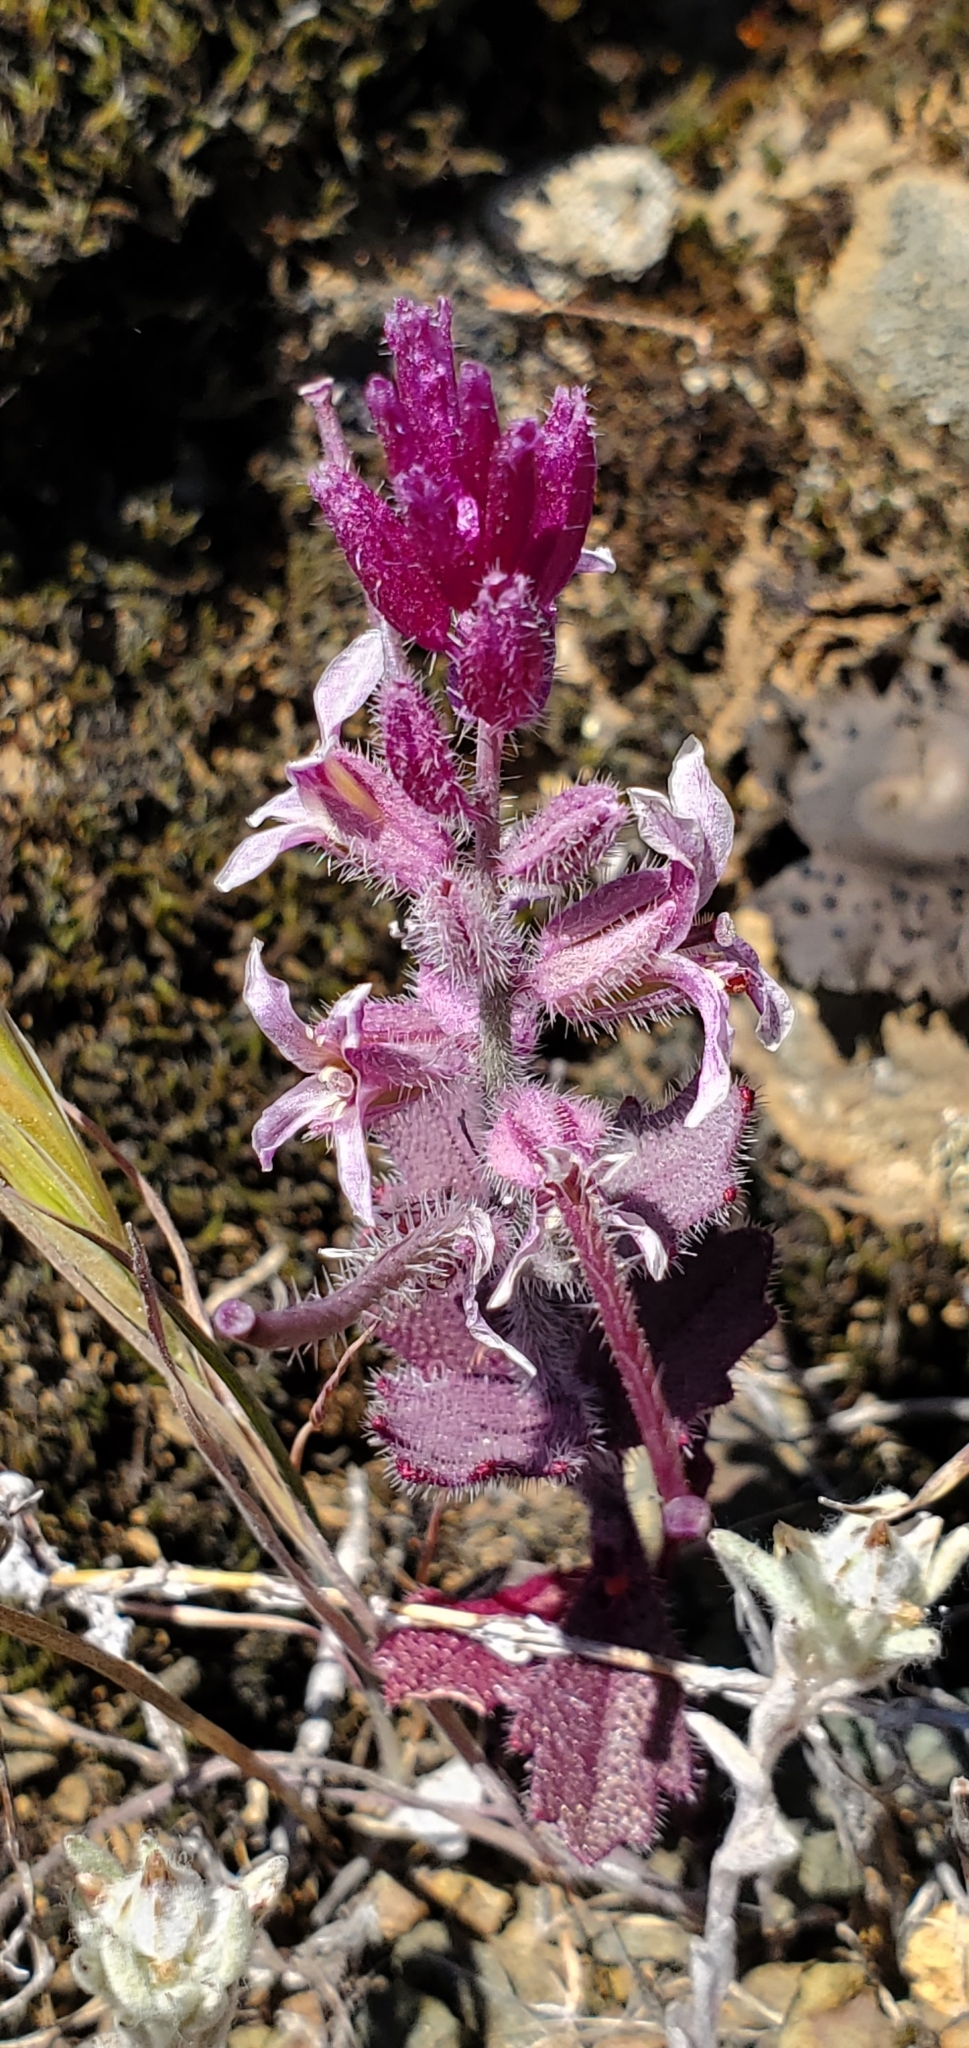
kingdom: Plantae
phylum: Tracheophyta
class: Magnoliopsida
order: Brassicales
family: Brassicaceae
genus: Streptanthus
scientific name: Streptanthus hispidus
